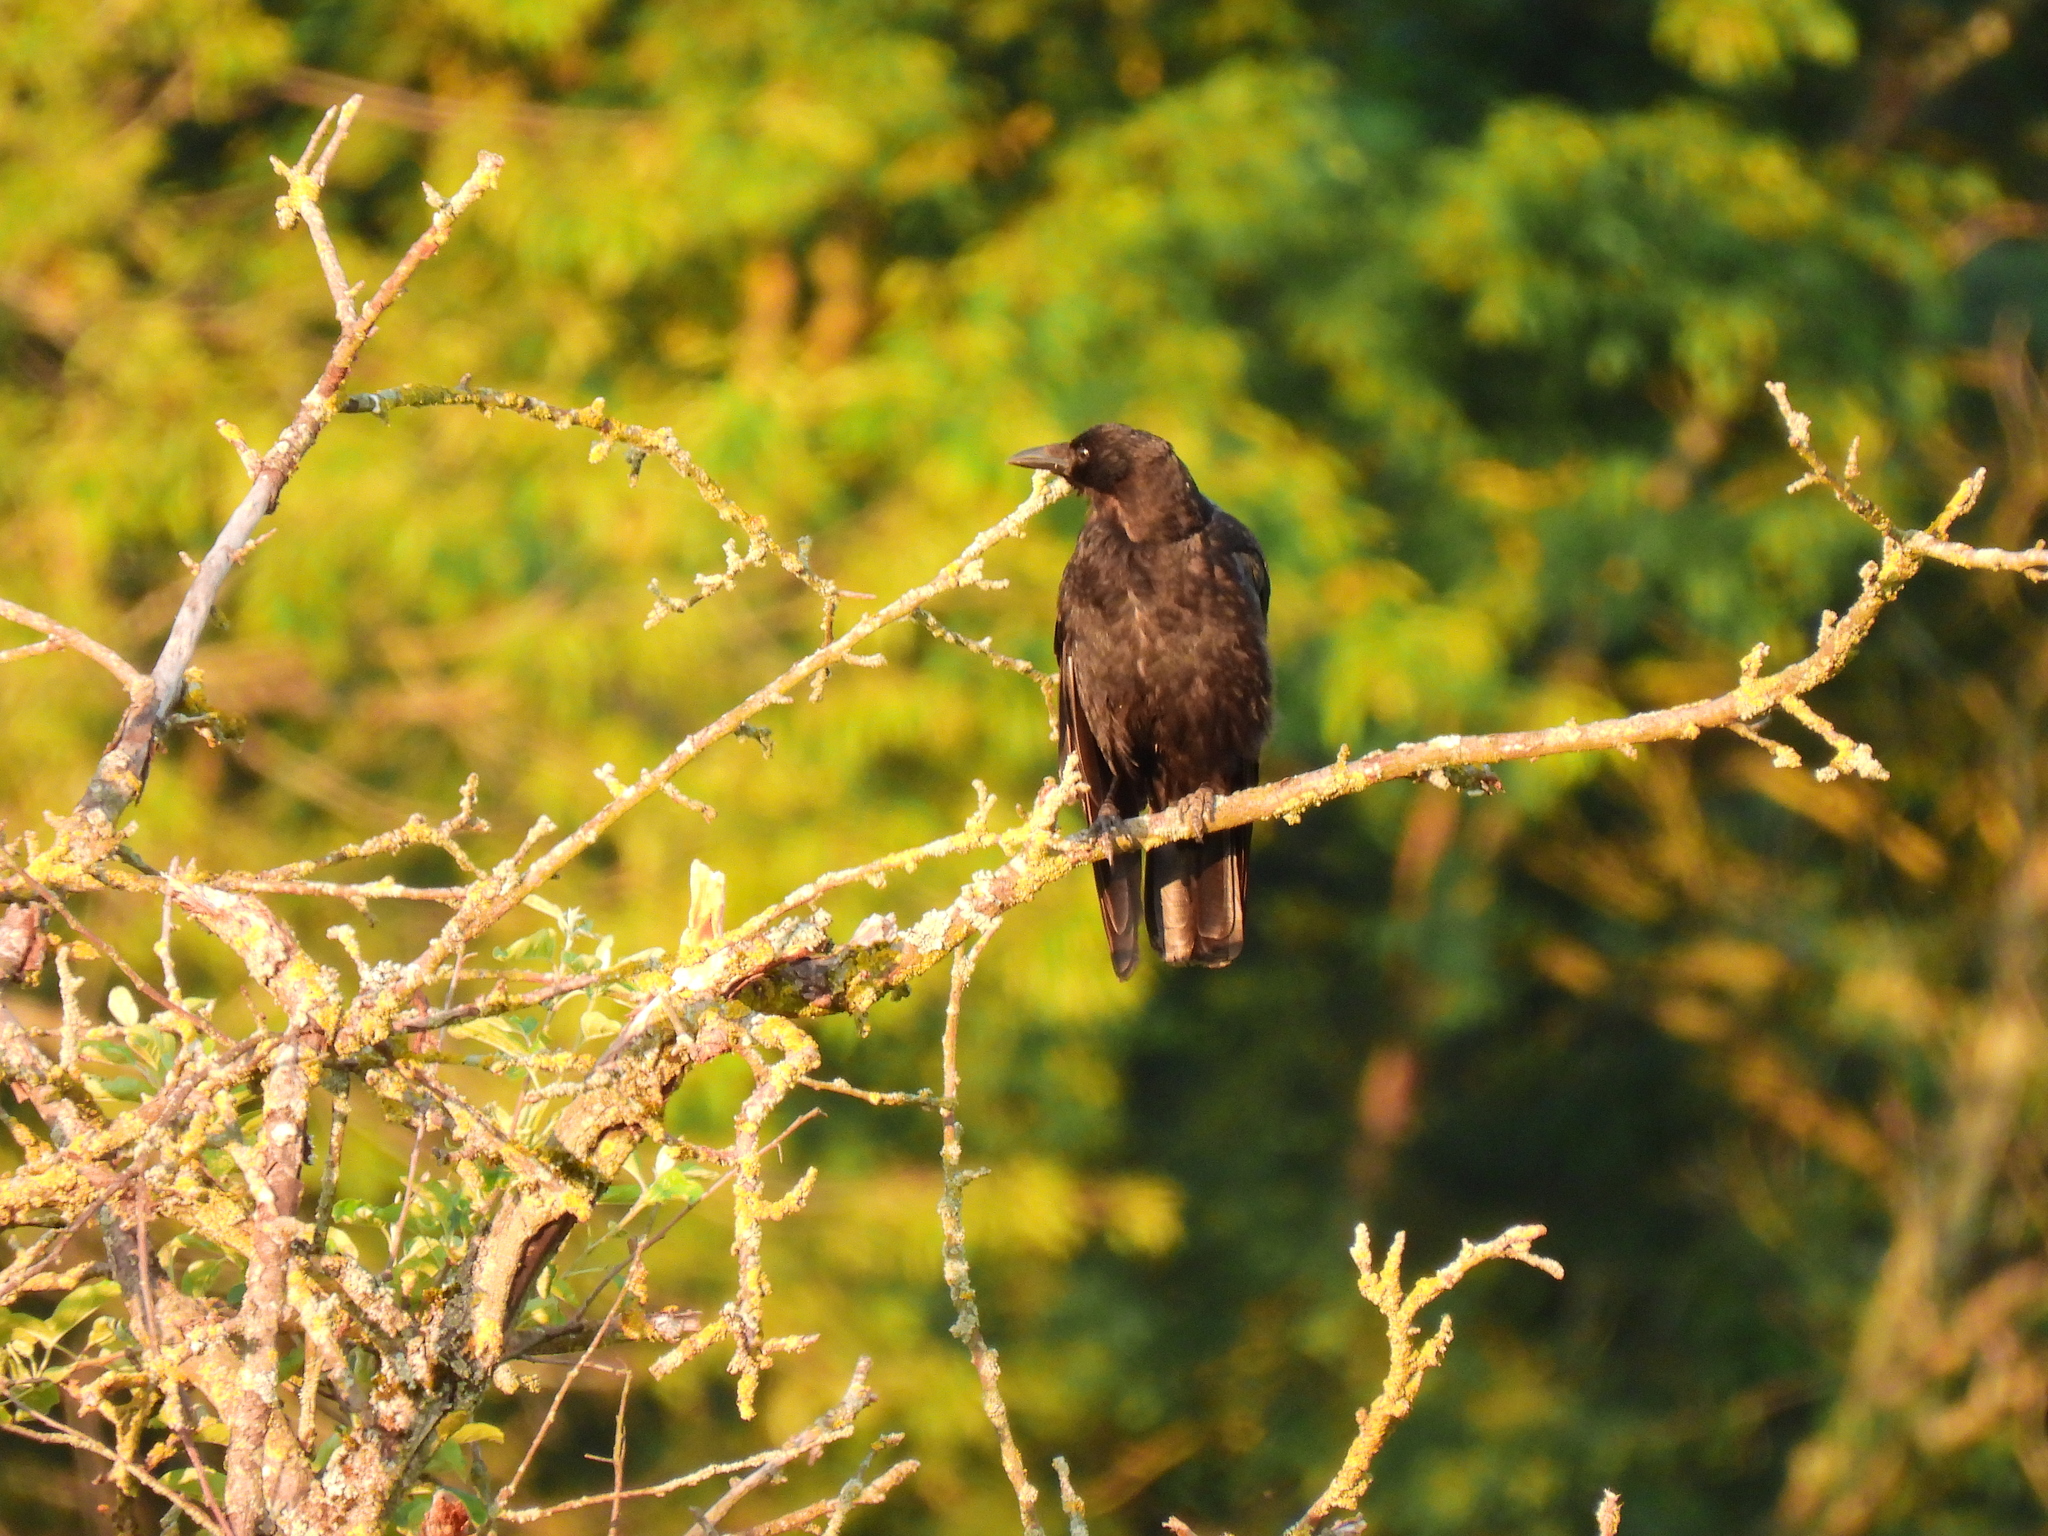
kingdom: Animalia
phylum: Chordata
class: Aves
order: Passeriformes
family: Corvidae
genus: Corvus
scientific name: Corvus corone
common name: Carrion crow
